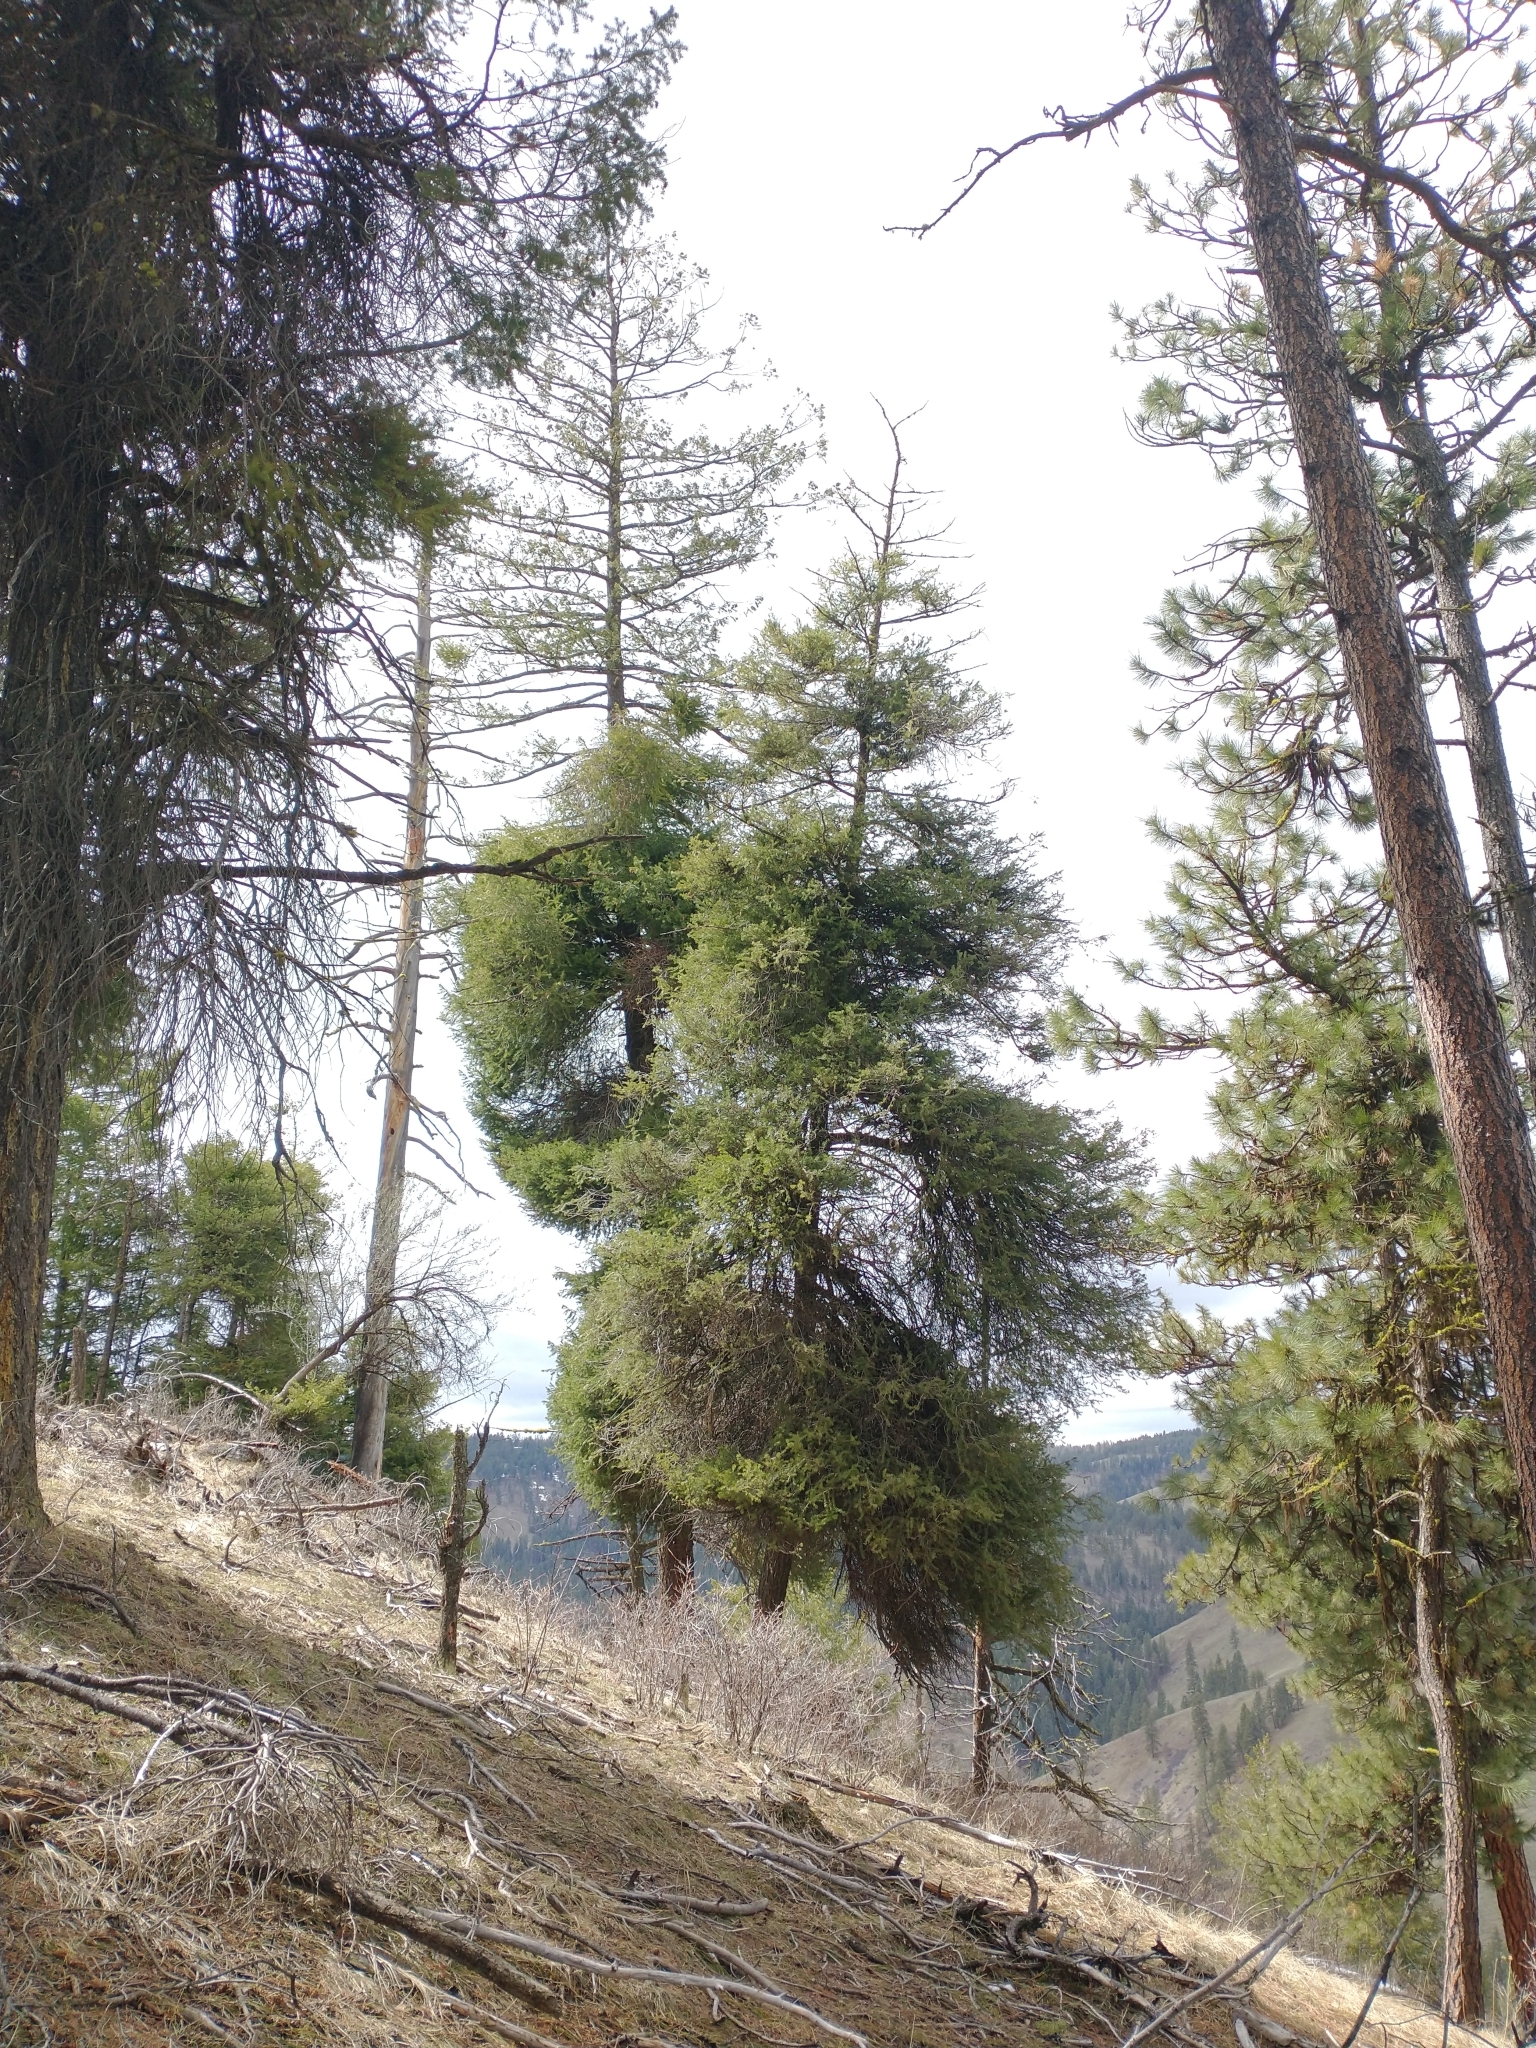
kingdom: Plantae
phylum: Tracheophyta
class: Pinopsida
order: Pinales
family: Pinaceae
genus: Pseudotsuga
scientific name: Pseudotsuga menziesii
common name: Douglas fir
